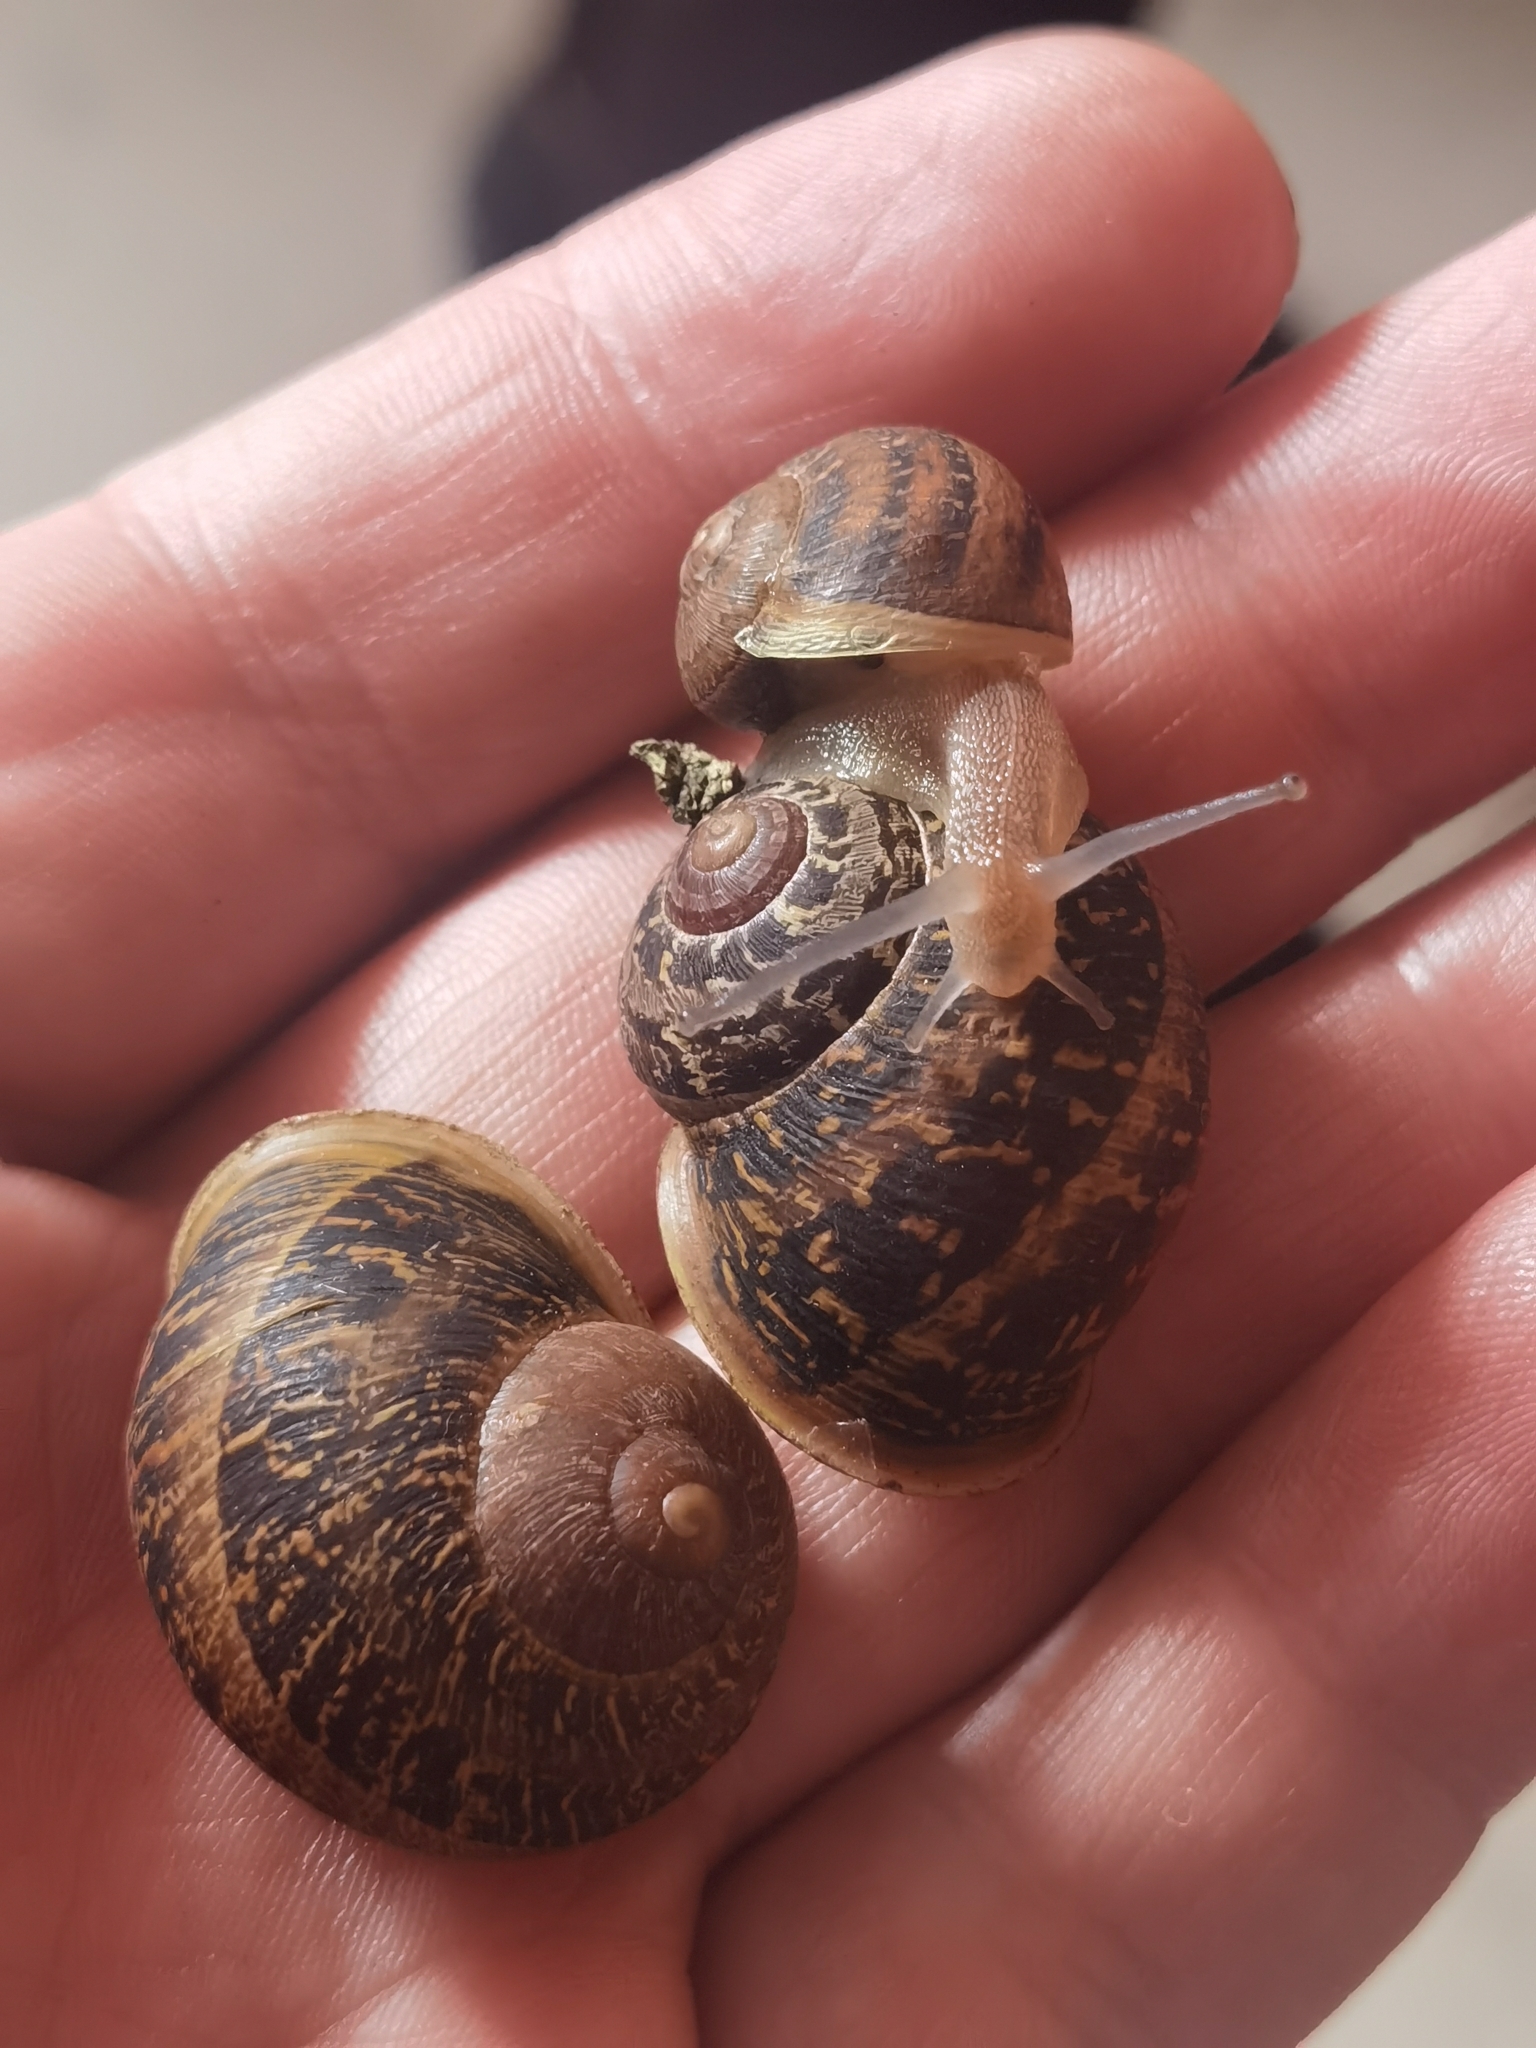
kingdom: Animalia
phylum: Mollusca
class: Gastropoda
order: Stylommatophora
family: Helicidae
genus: Cornu
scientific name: Cornu aspersum
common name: Brown garden snail
